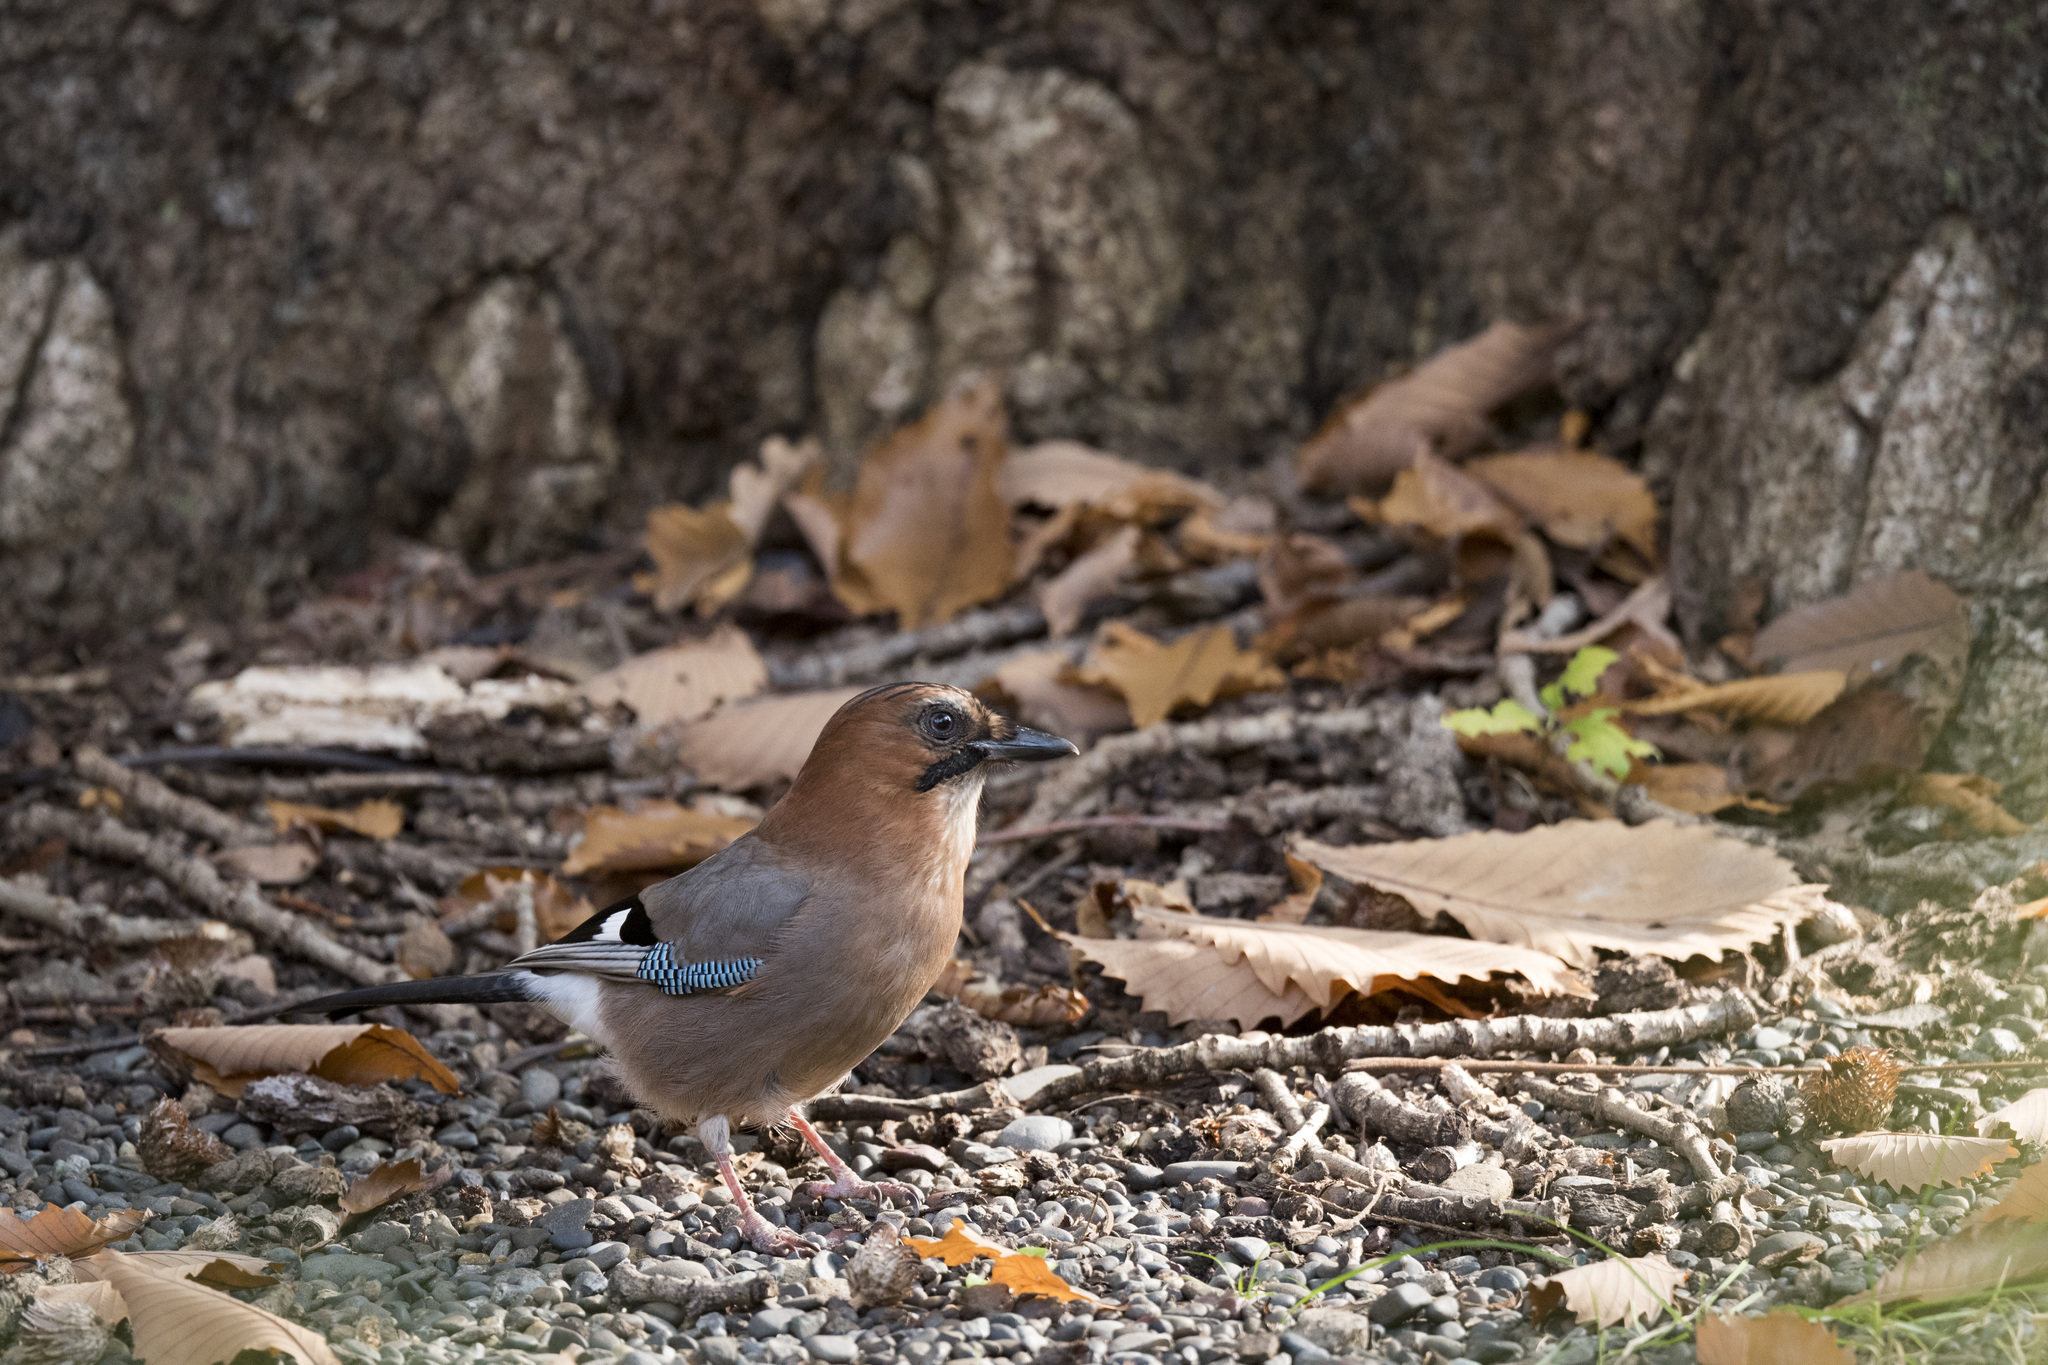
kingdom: Animalia
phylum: Chordata
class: Aves
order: Passeriformes
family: Corvidae
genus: Garrulus
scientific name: Garrulus glandarius
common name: Eurasian jay
